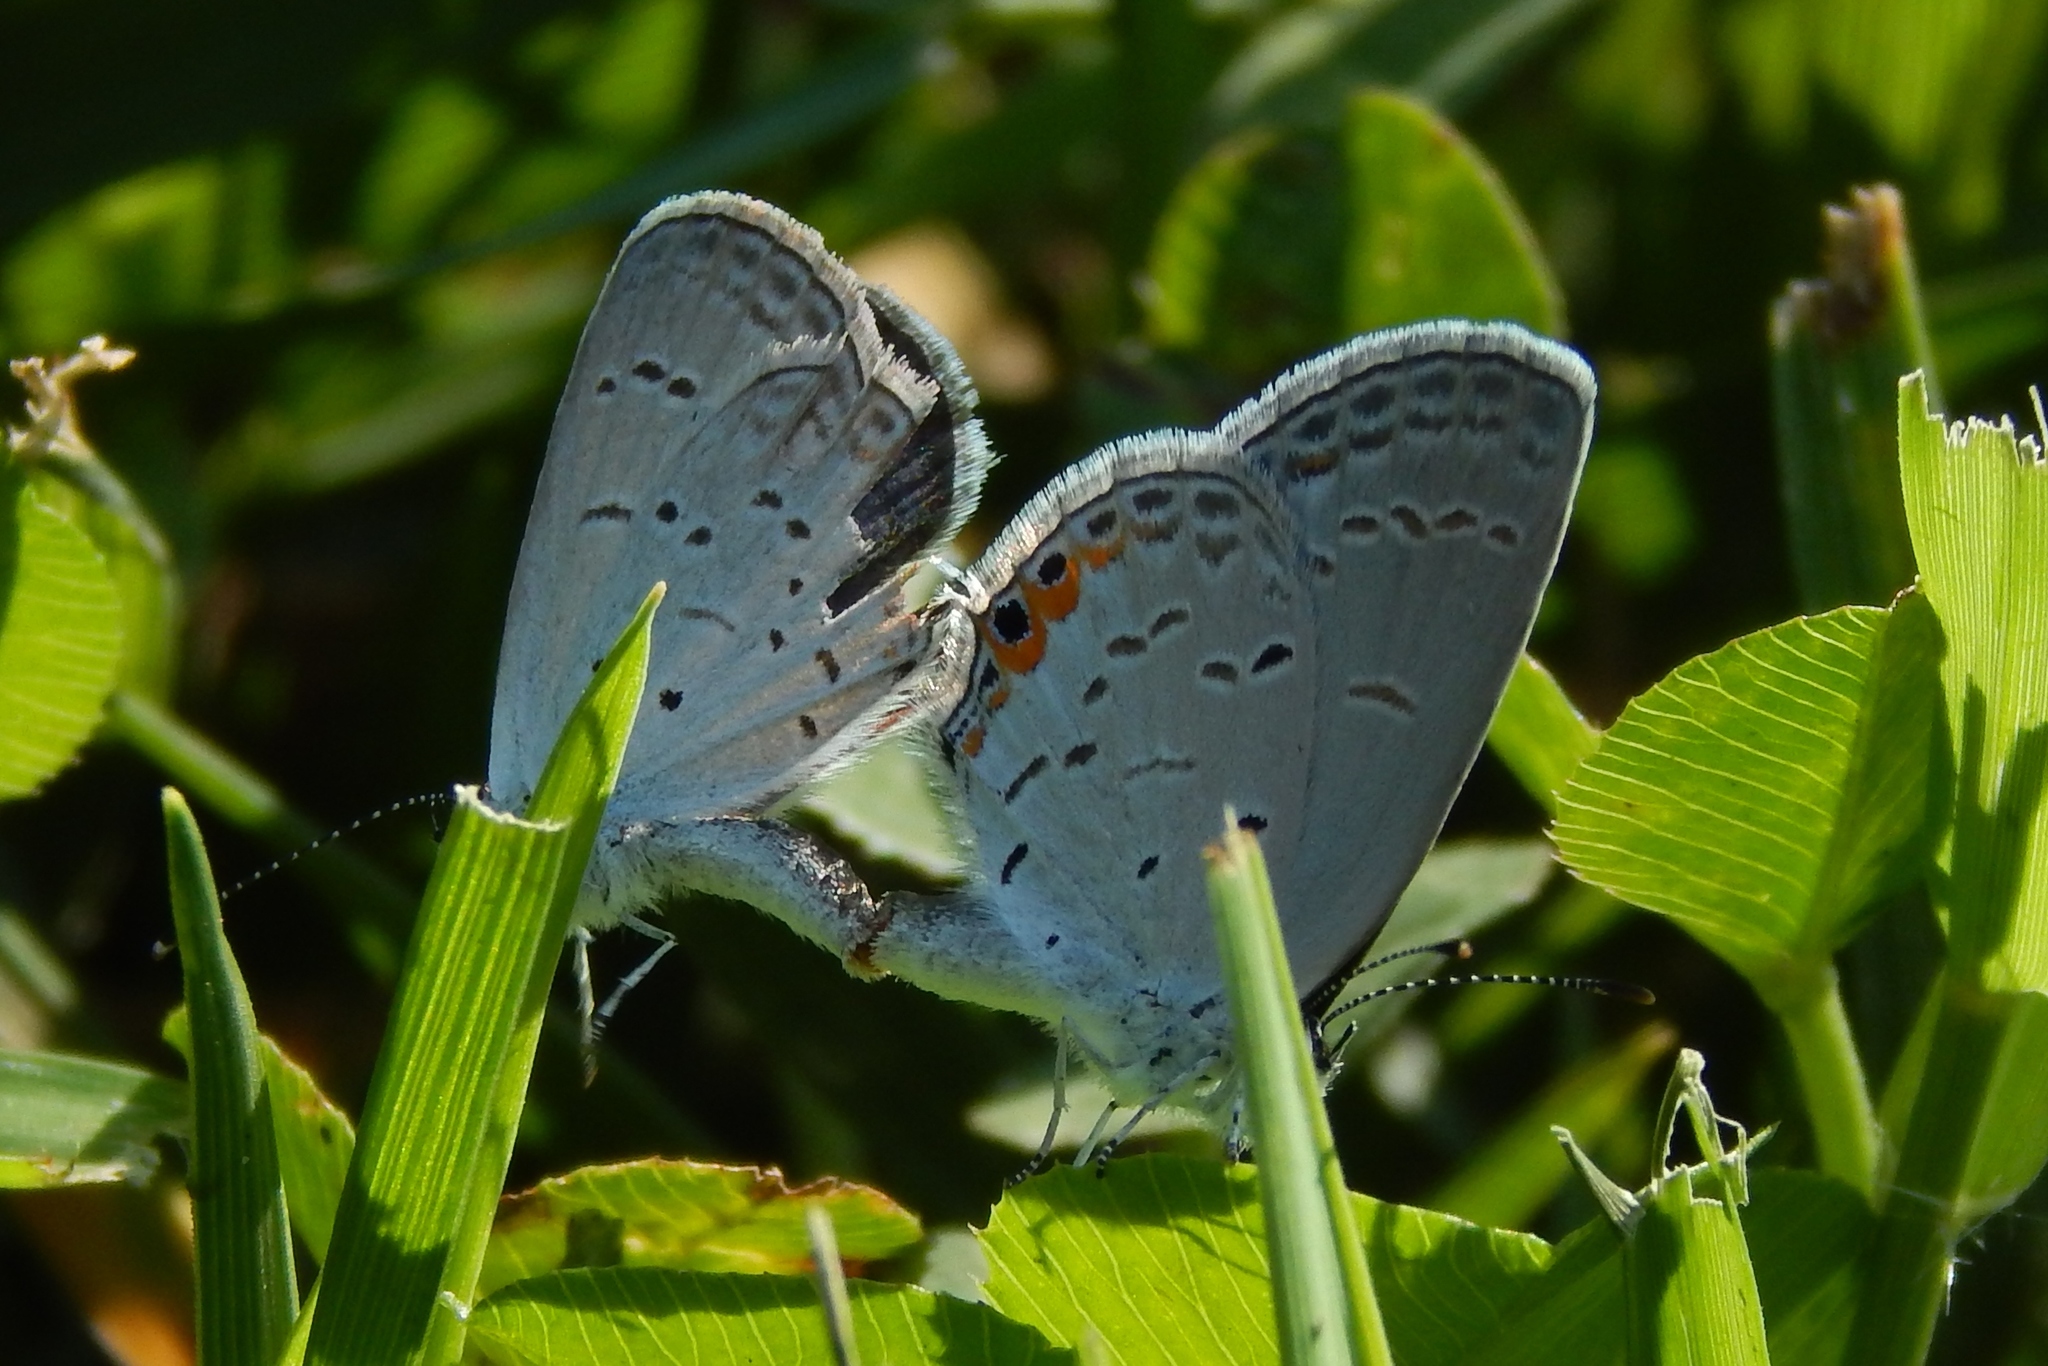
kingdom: Animalia
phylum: Arthropoda
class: Insecta
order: Lepidoptera
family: Lycaenidae
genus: Elkalyce
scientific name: Elkalyce comyntas
